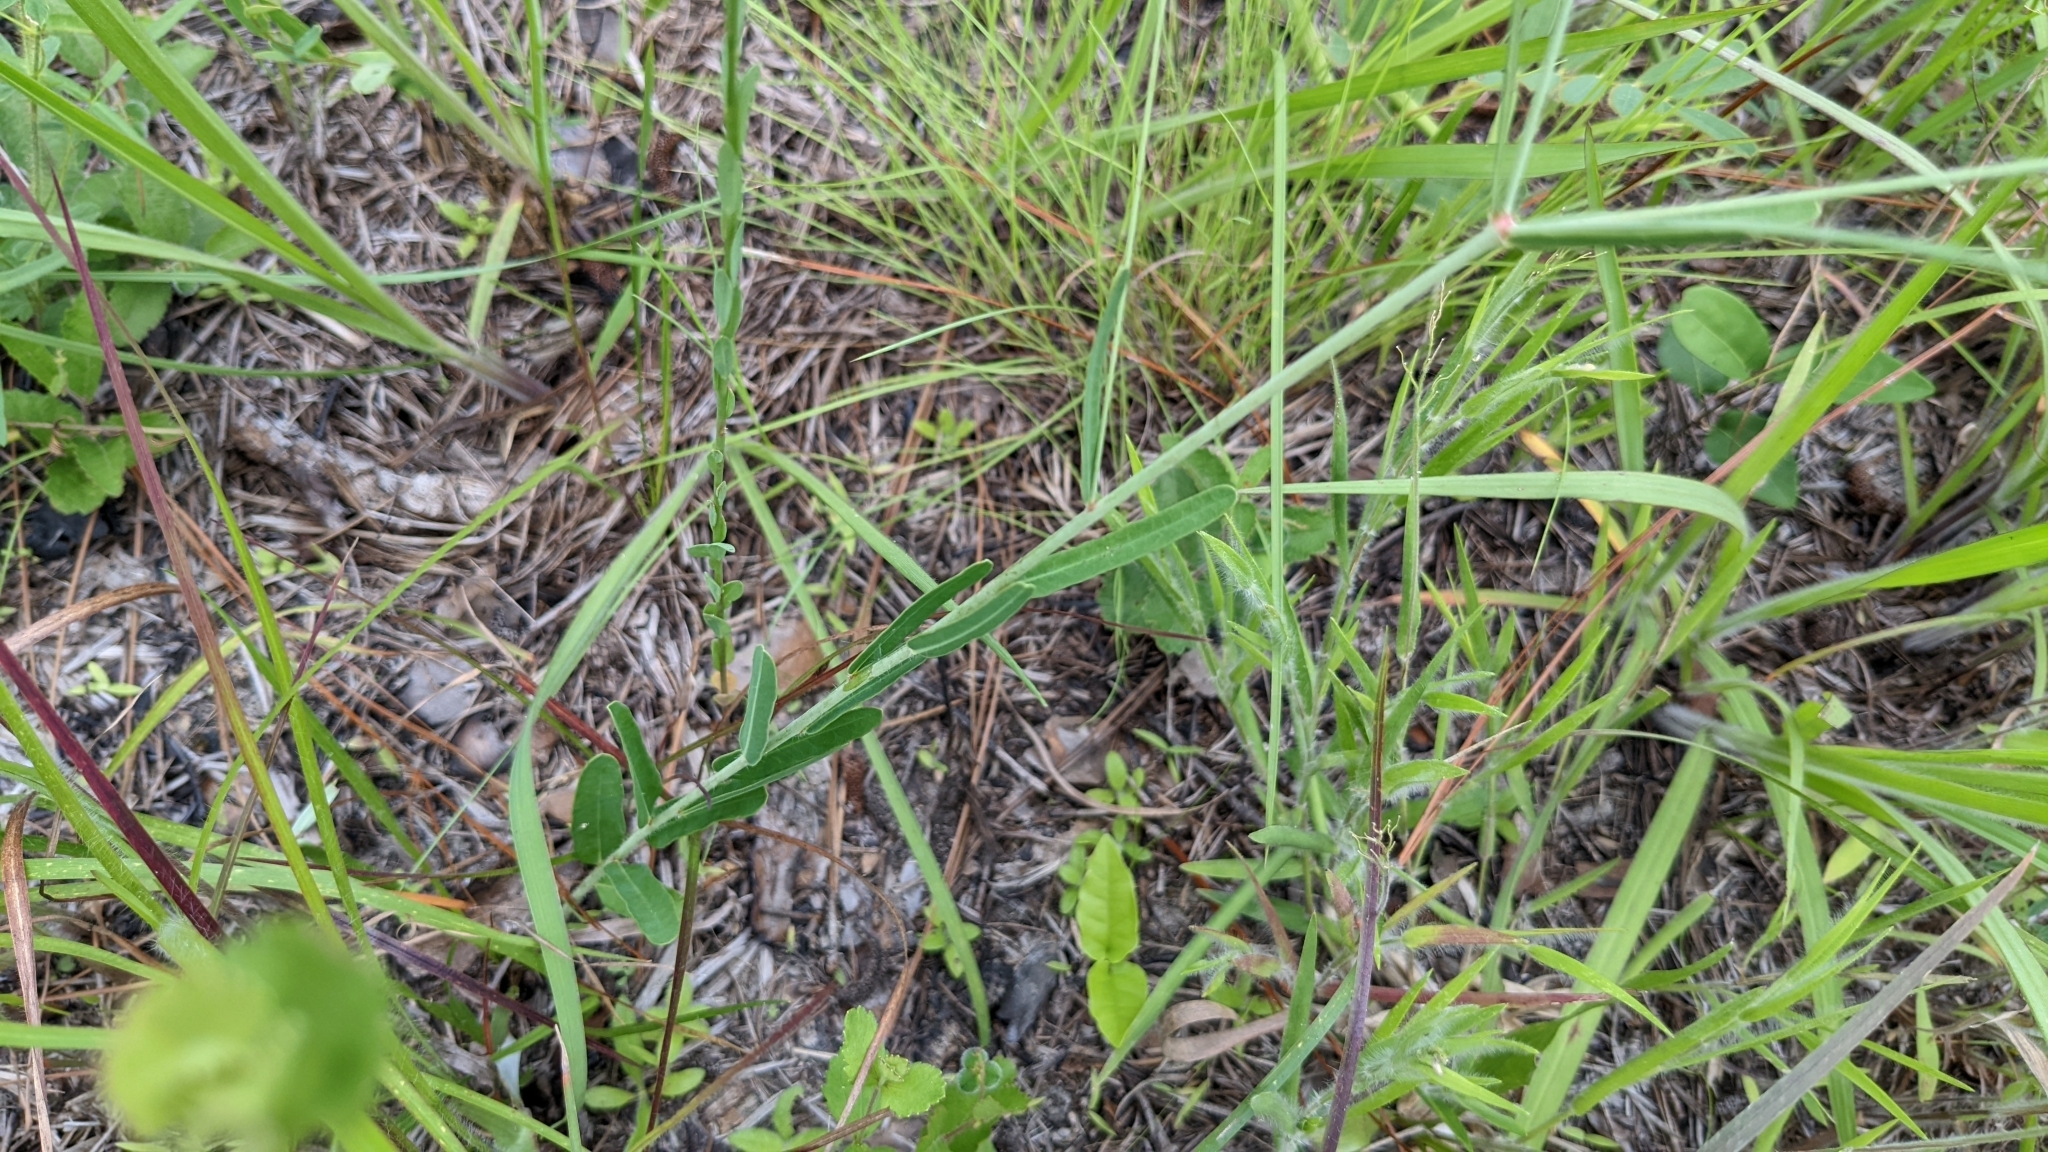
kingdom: Plantae
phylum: Tracheophyta
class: Magnoliopsida
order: Malpighiales
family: Euphorbiaceae
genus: Euphorbia
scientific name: Euphorbia corollata
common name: Flowering spurge
